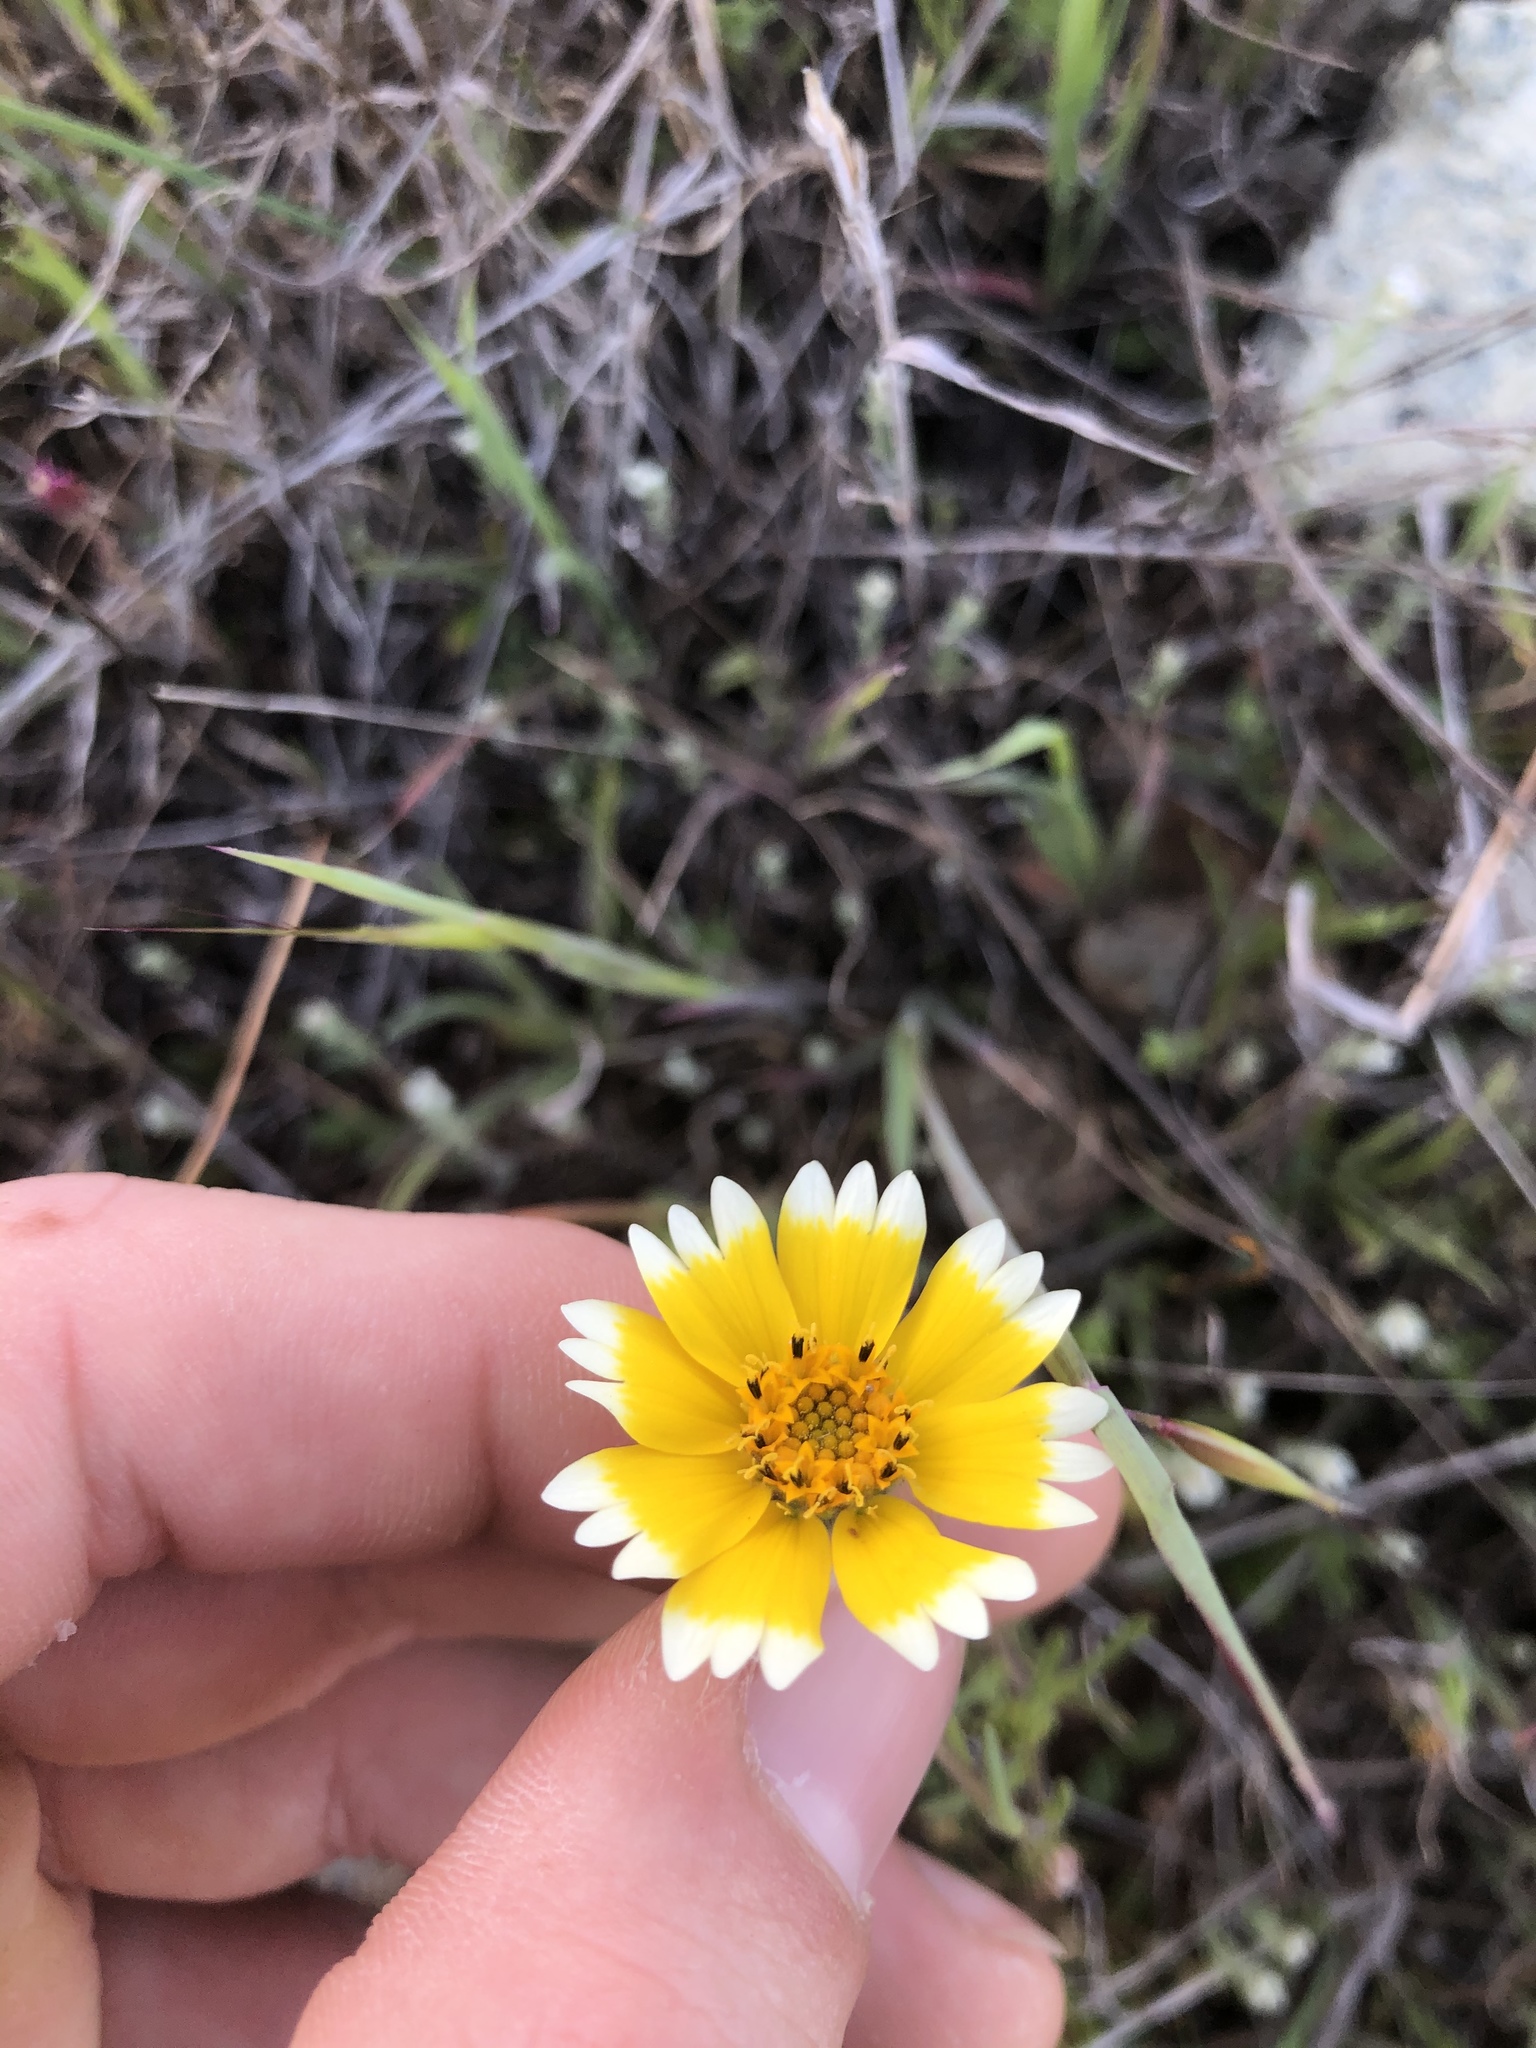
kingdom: Plantae
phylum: Tracheophyta
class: Magnoliopsida
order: Asterales
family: Asteraceae
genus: Layia
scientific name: Layia platyglossa
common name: Tidy-tips
